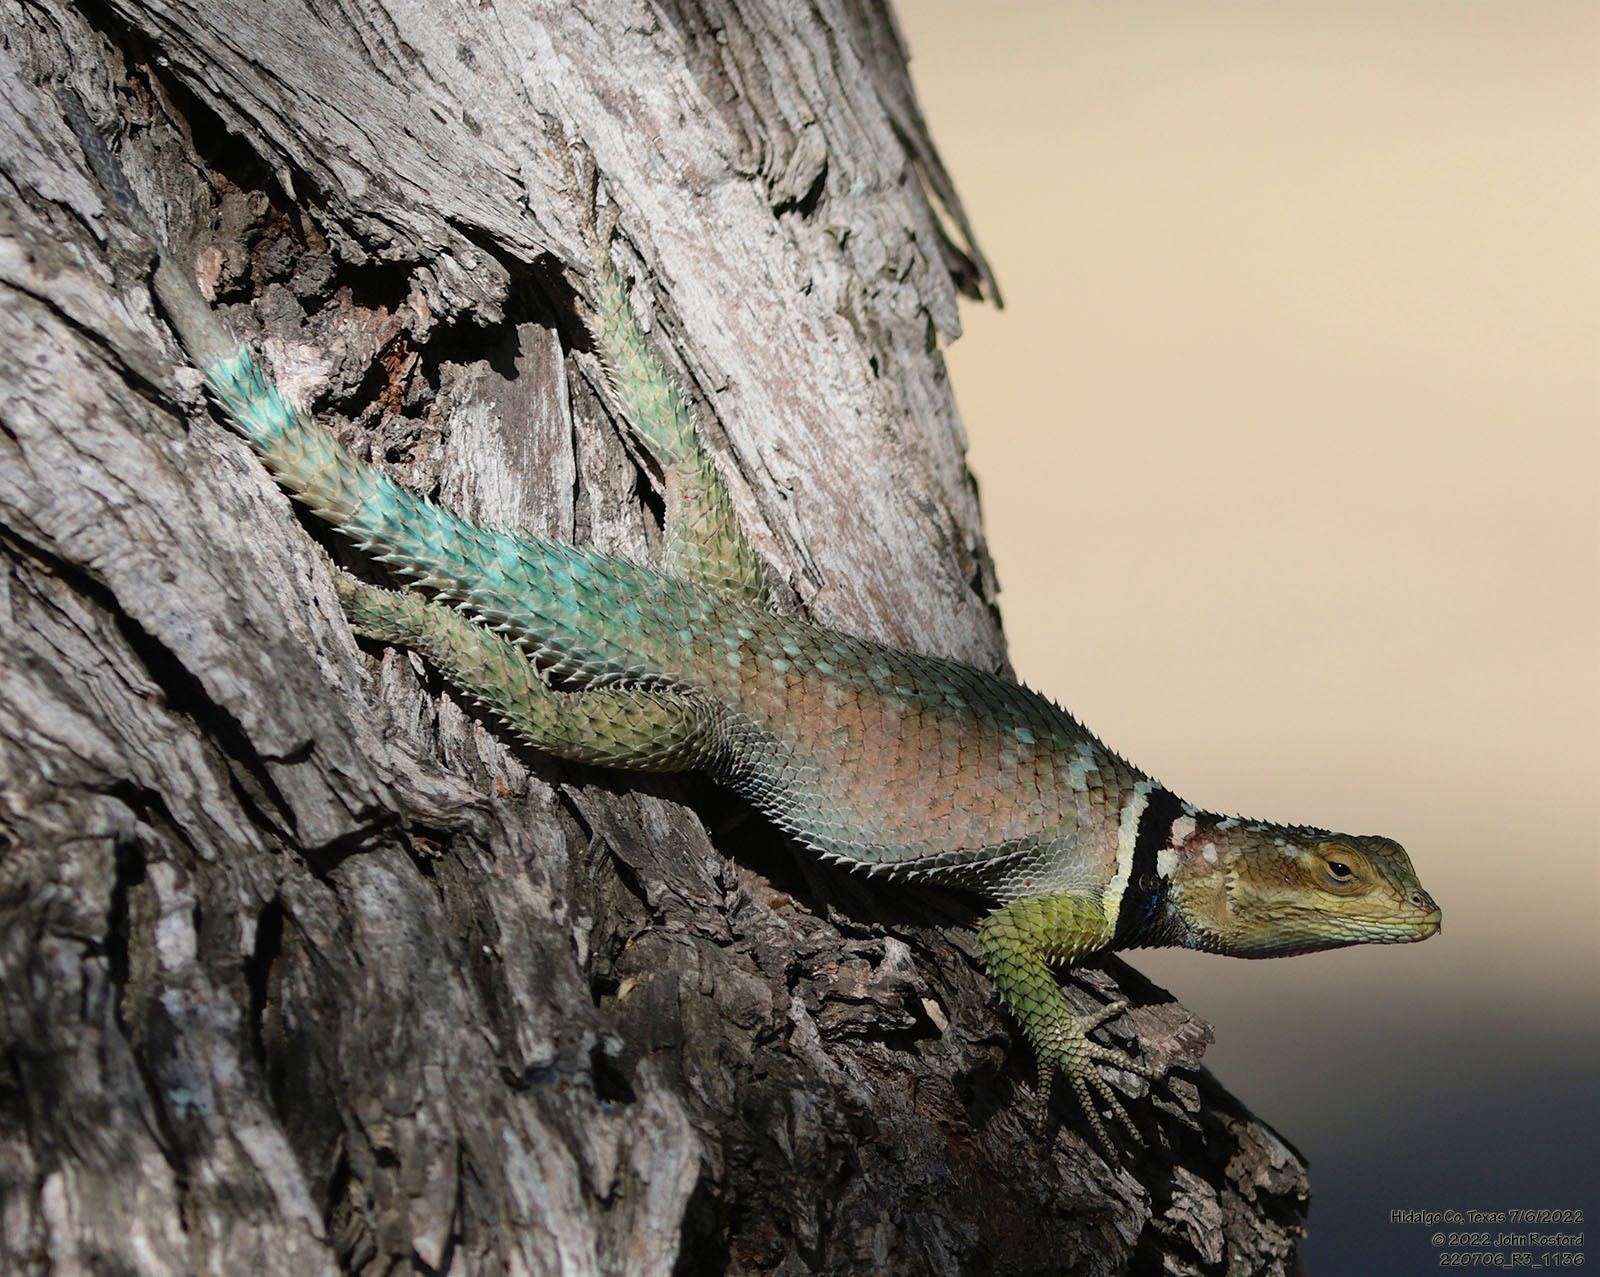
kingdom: Animalia
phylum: Chordata
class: Squamata
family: Phrynosomatidae
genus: Sceloporus
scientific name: Sceloporus cyanogenys
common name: Blue spiny lizard
